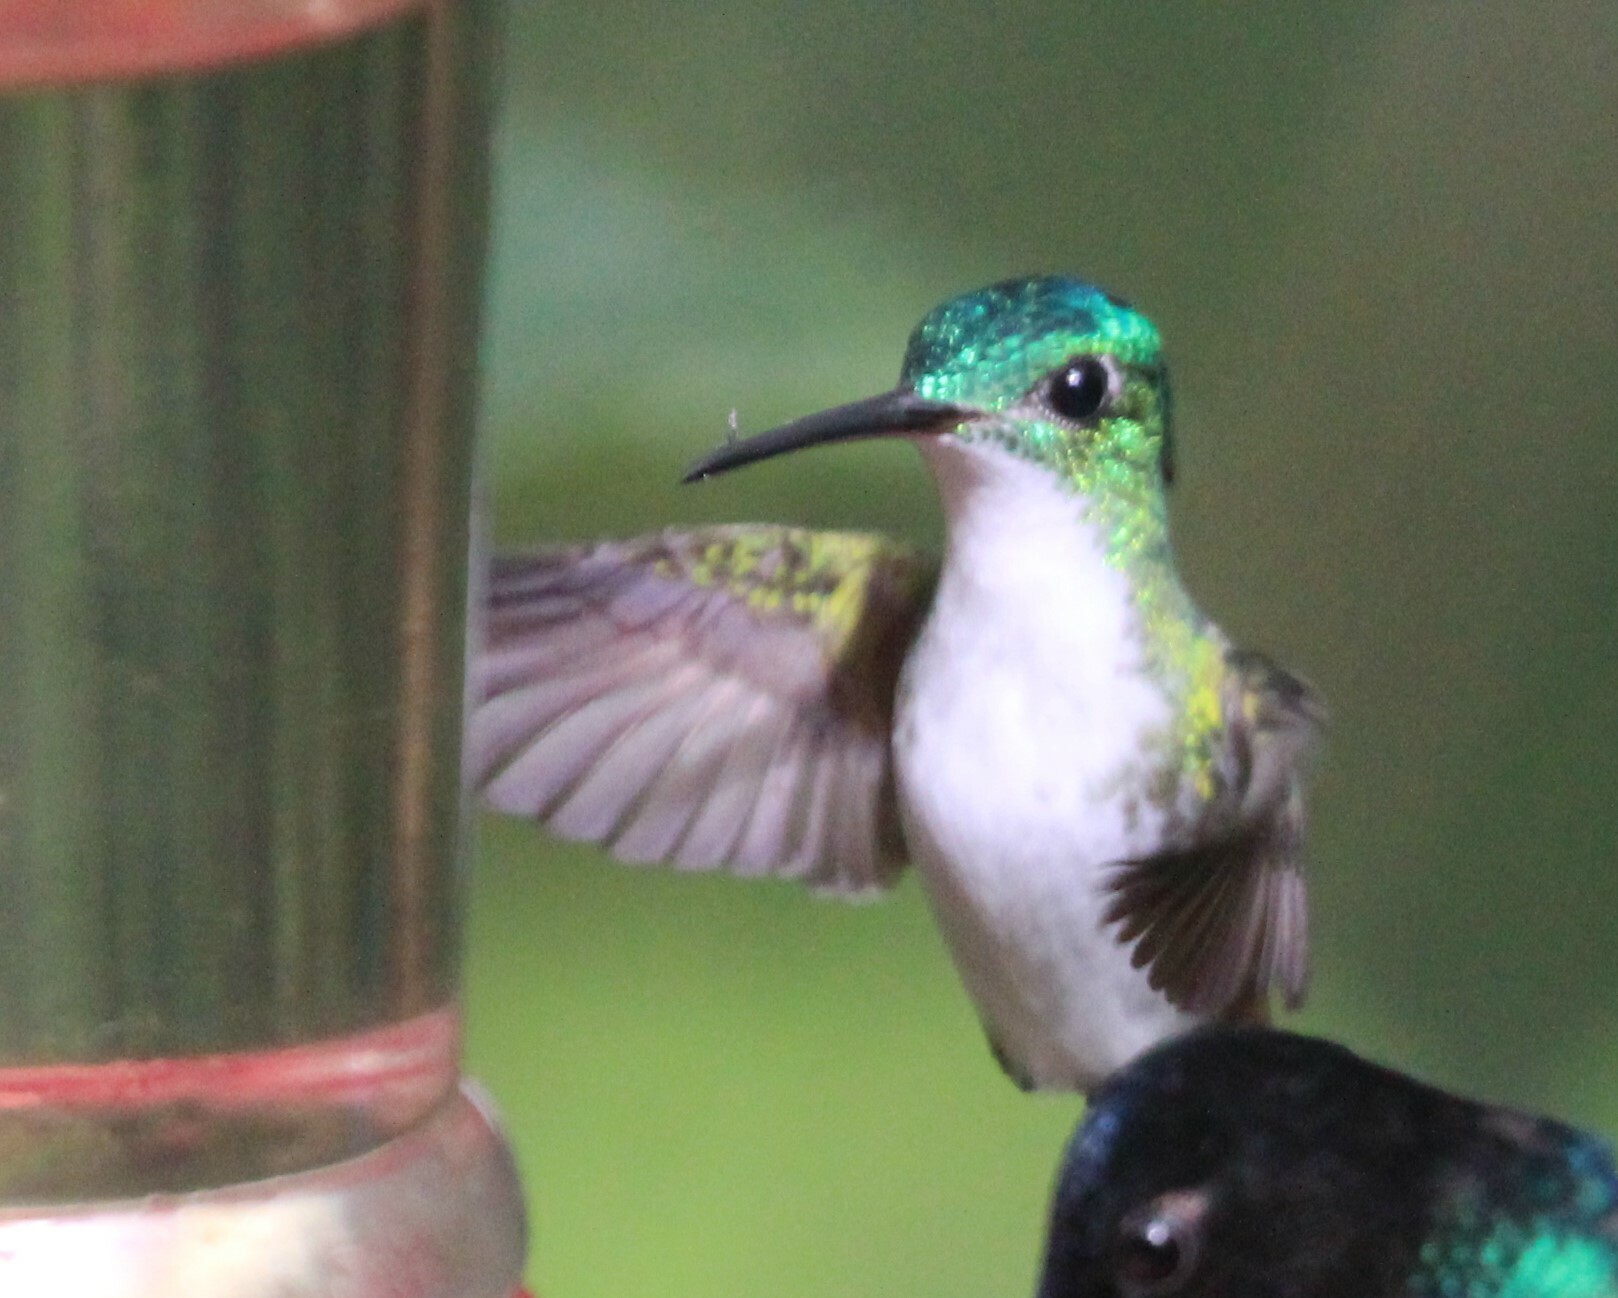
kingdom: Animalia
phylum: Chordata
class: Aves
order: Apodiformes
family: Trochilidae
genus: Uranomitra
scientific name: Uranomitra franciae
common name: Andean emerald
